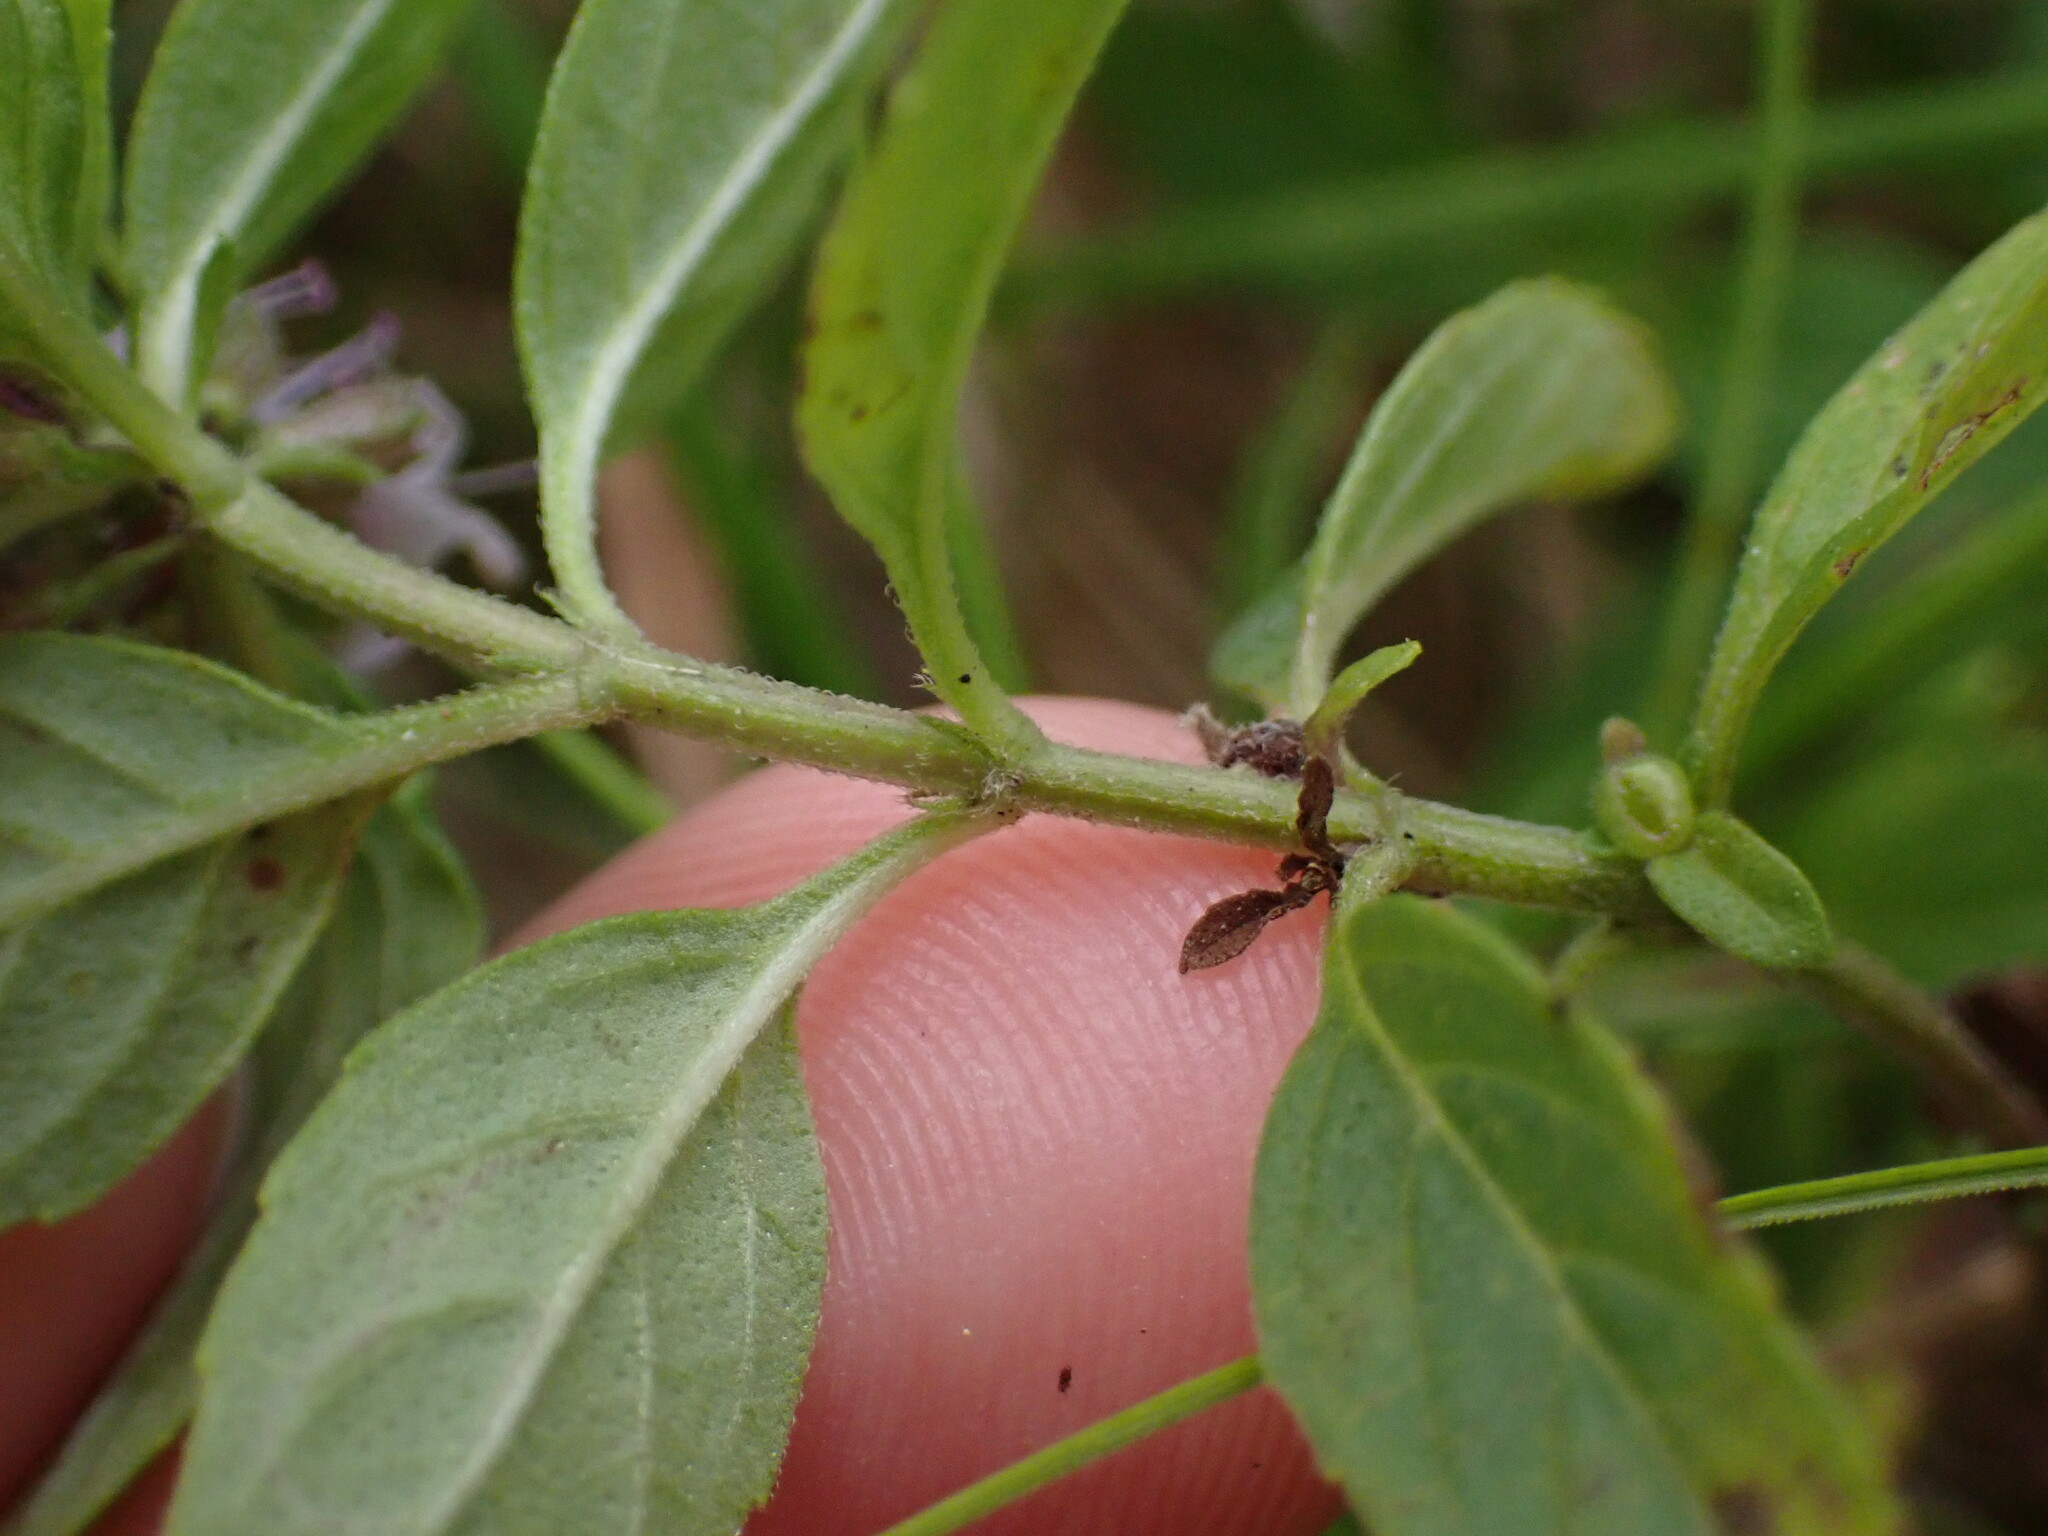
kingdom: Plantae
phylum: Tracheophyta
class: Magnoliopsida
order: Lamiales
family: Lamiaceae
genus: Mentha
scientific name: Mentha canadensis
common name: American corn mint
